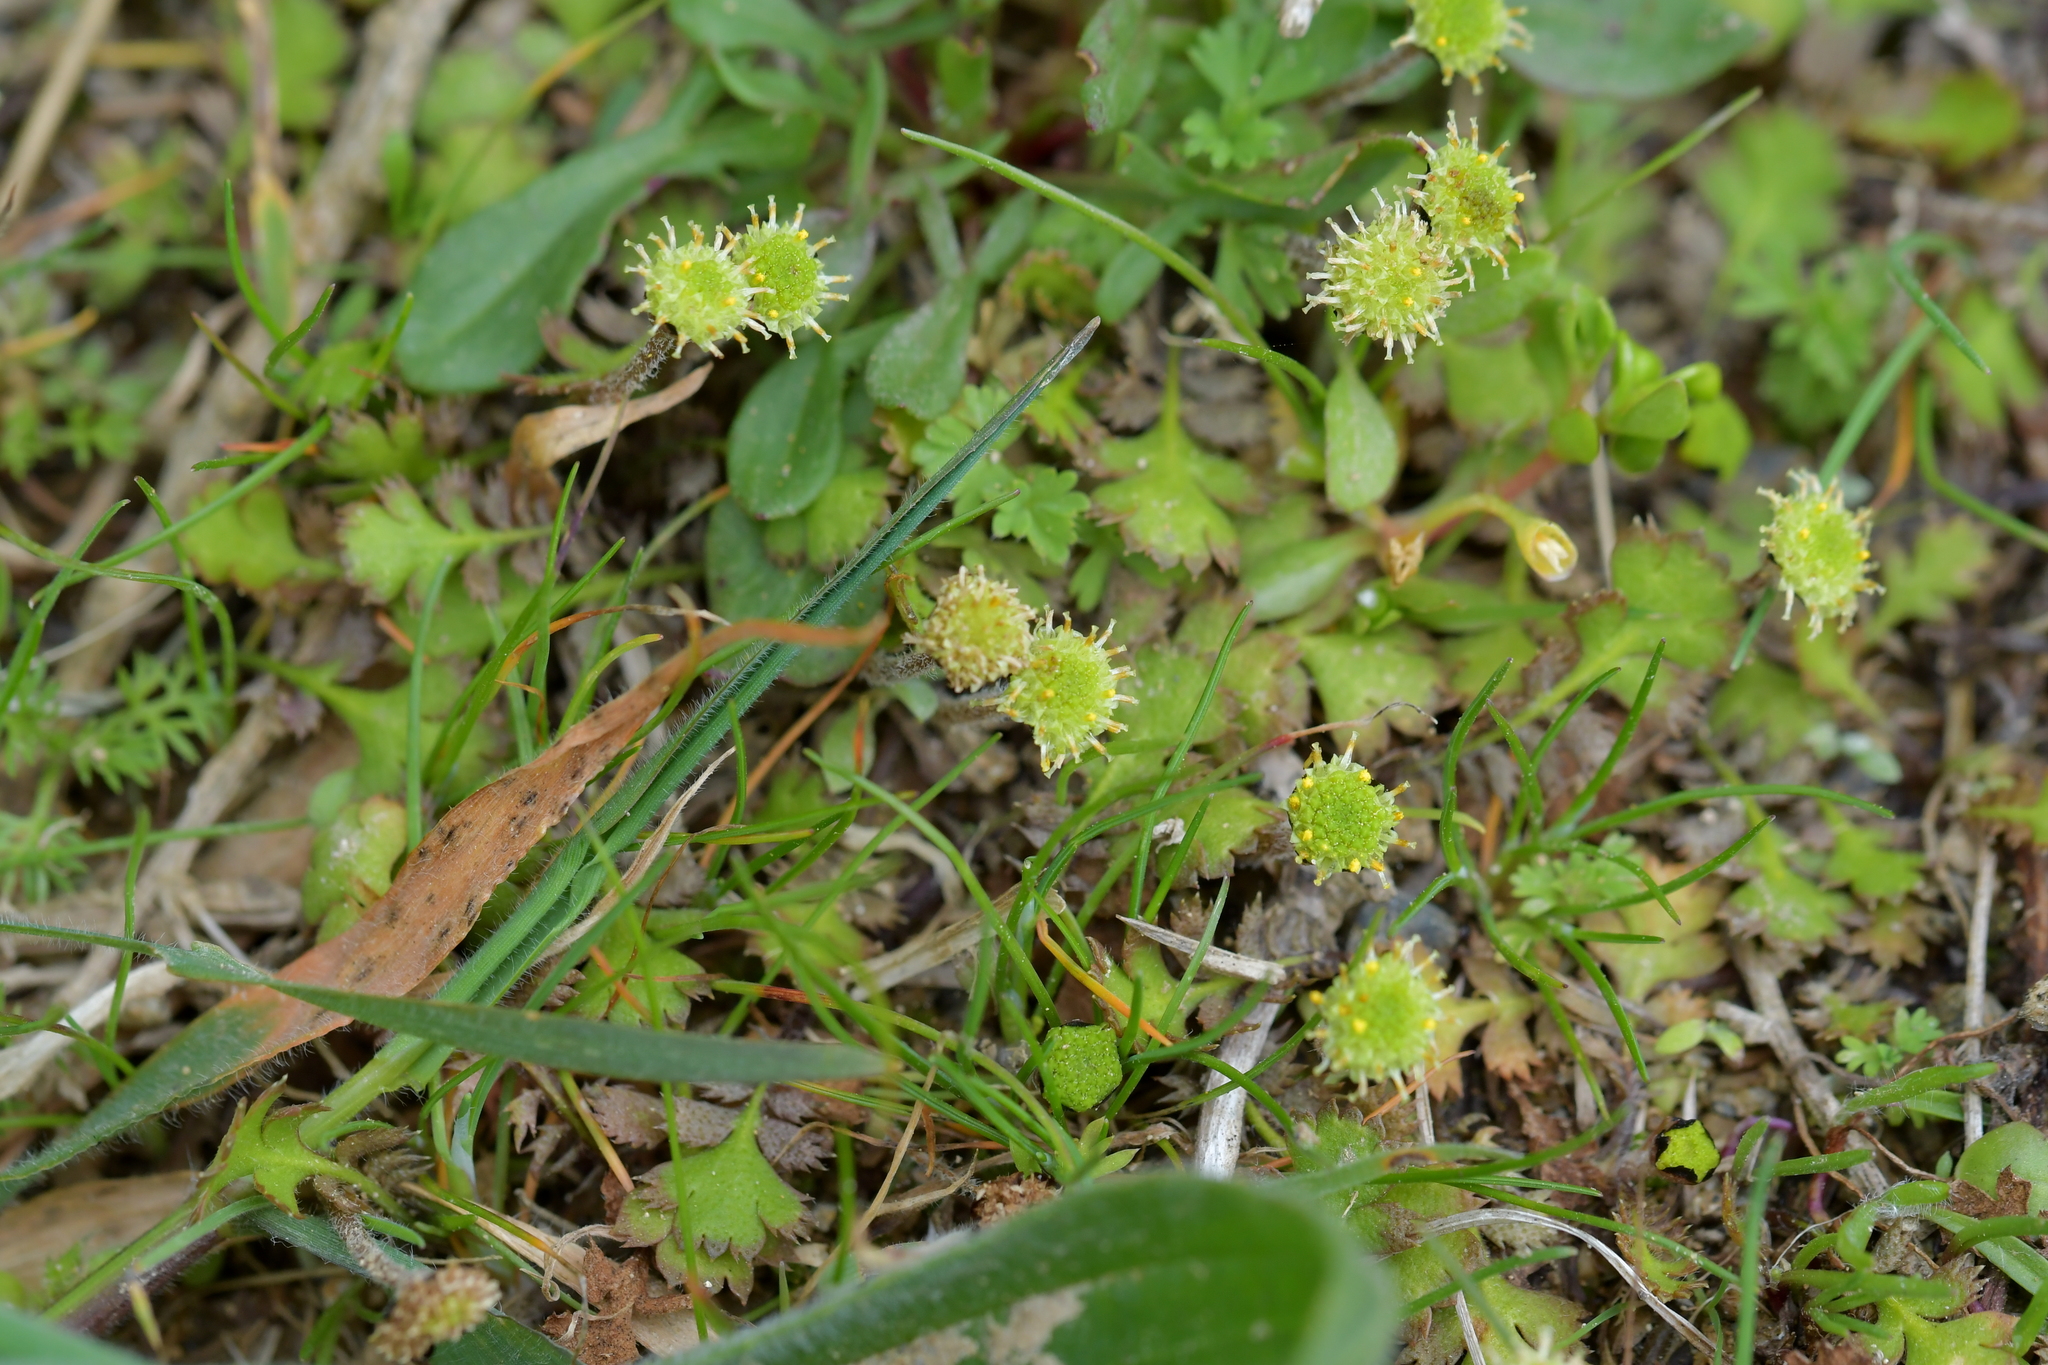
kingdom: Plantae
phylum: Tracheophyta
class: Magnoliopsida
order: Asterales
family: Asteraceae
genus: Leptinella
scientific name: Leptinella squalida
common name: New zealand brass-buttons
